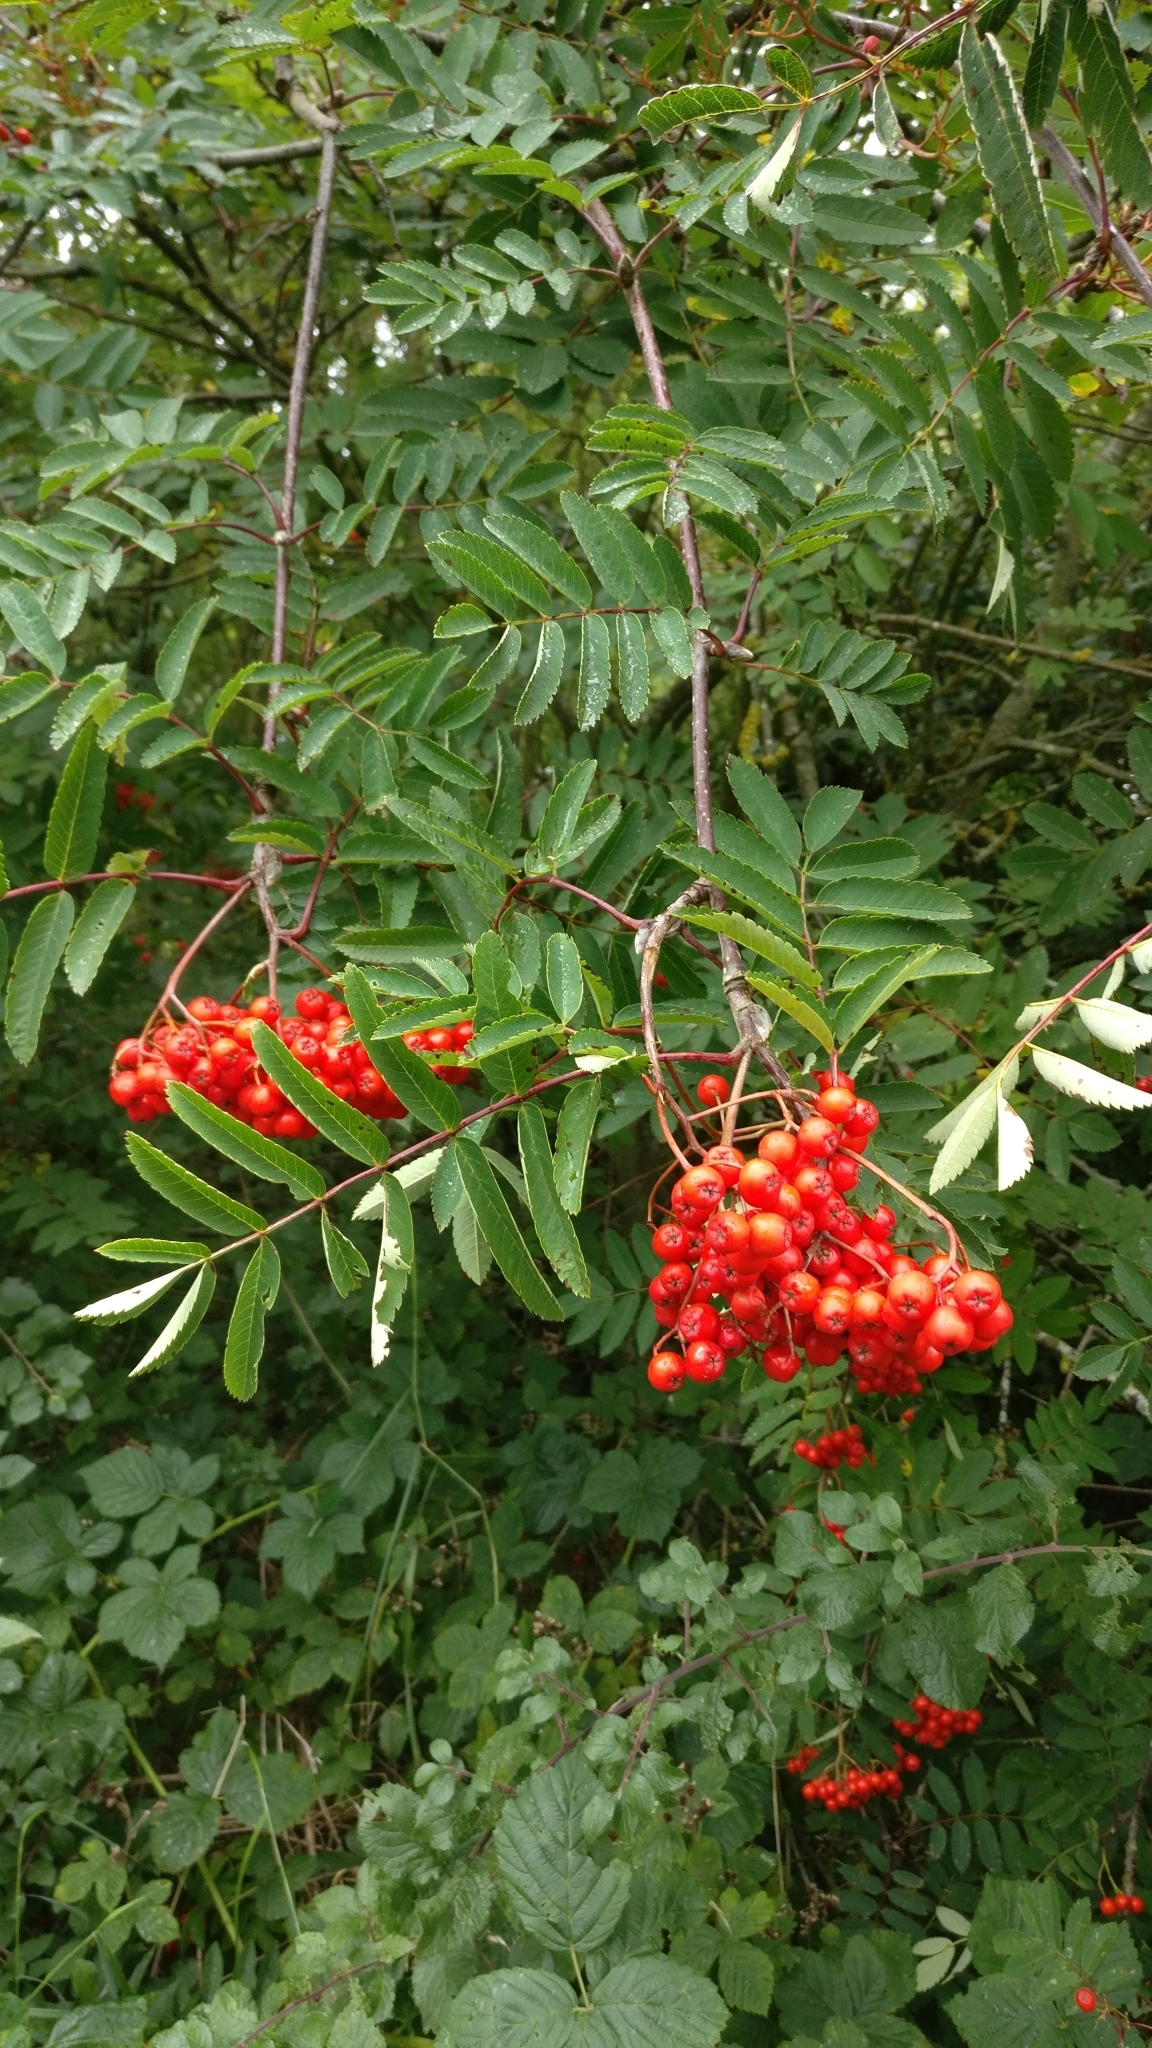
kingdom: Plantae
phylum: Tracheophyta
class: Magnoliopsida
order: Rosales
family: Rosaceae
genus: Sorbus
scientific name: Sorbus aucuparia
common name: Rowan
